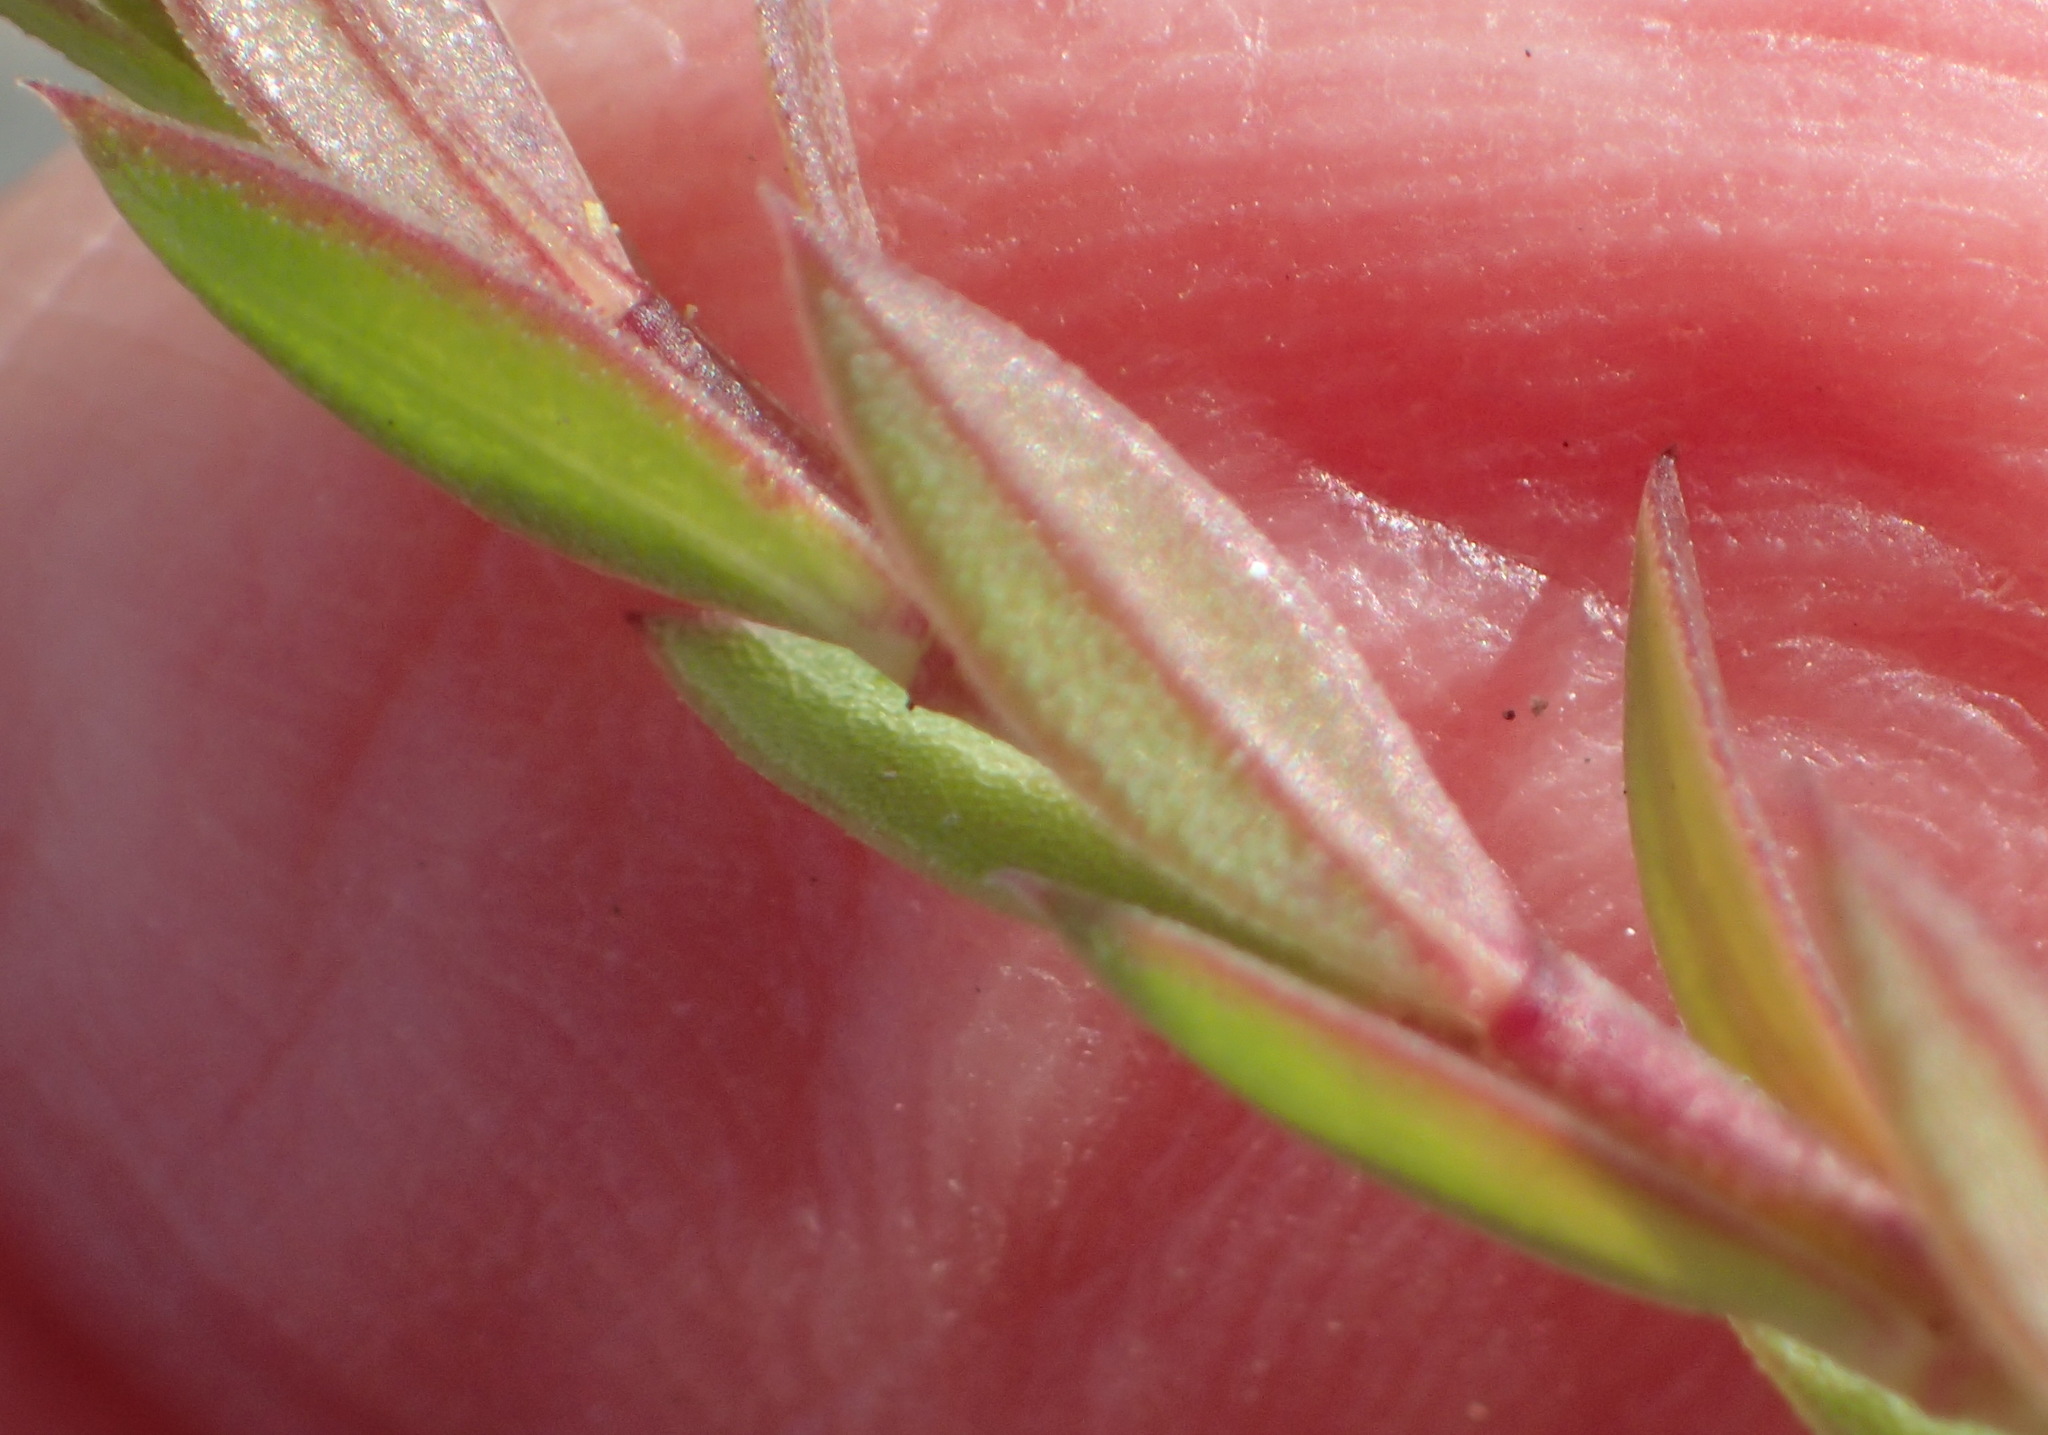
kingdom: Plantae
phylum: Tracheophyta
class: Magnoliopsida
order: Malpighiales
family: Linaceae
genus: Linum
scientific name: Linum aethiopicum
